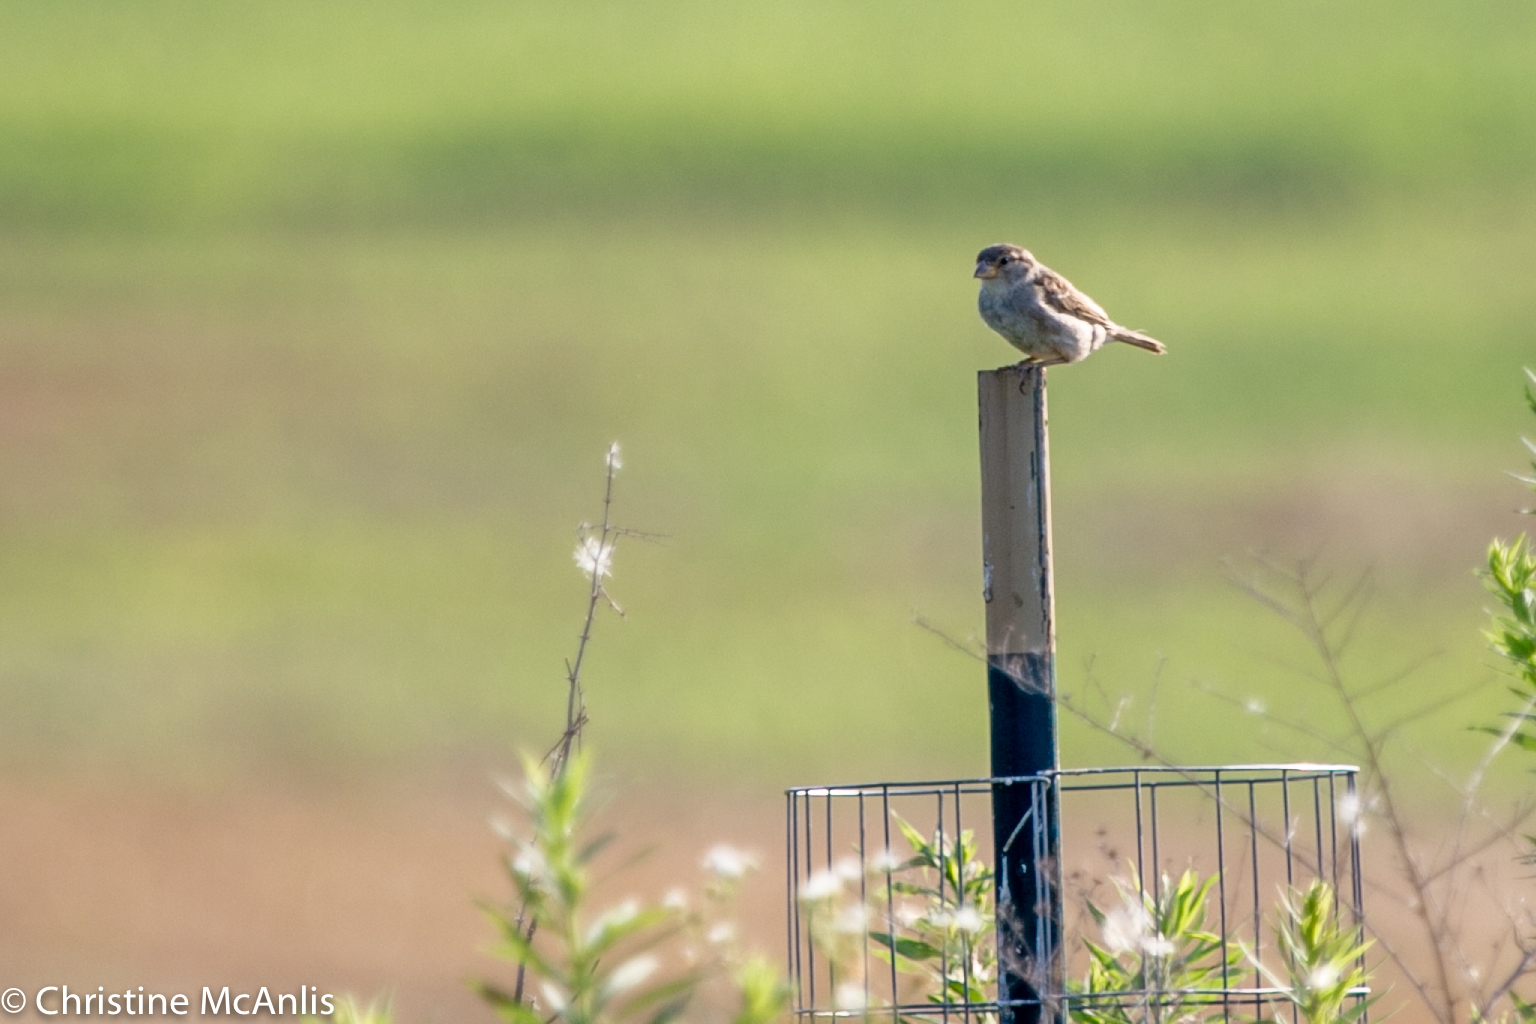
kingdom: Animalia
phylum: Chordata
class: Aves
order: Passeriformes
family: Passeridae
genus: Passer
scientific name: Passer domesticus
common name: House sparrow
